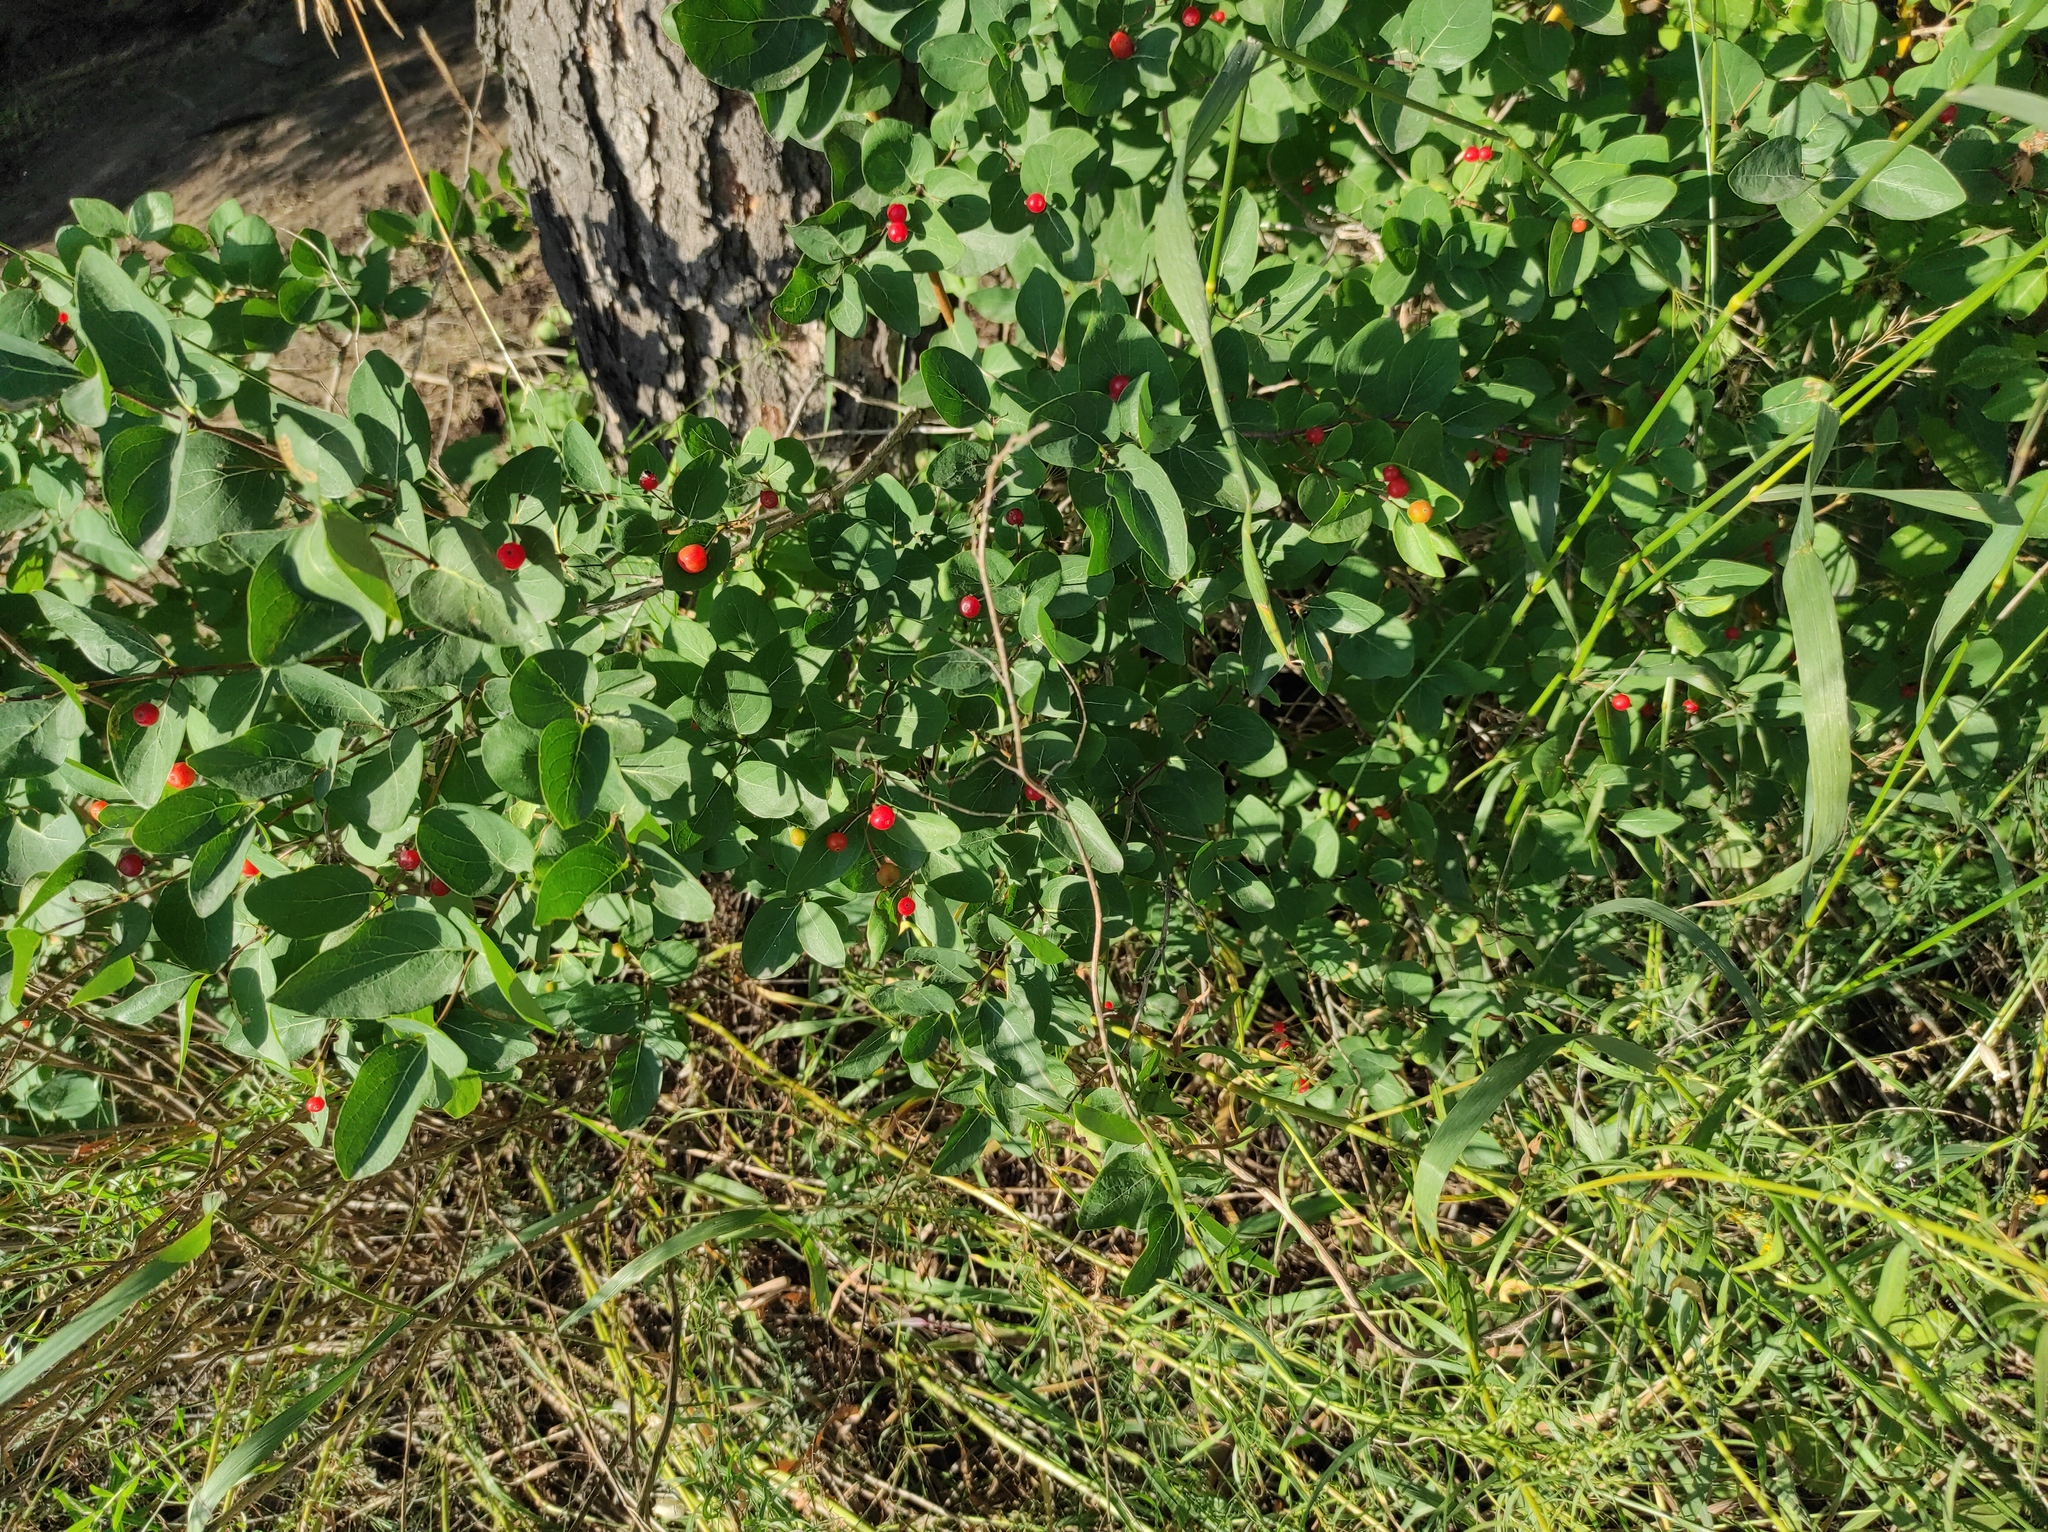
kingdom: Plantae
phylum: Tracheophyta
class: Magnoliopsida
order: Dipsacales
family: Caprifoliaceae
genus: Lonicera
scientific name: Lonicera tatarica
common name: Tatarian honeysuckle
